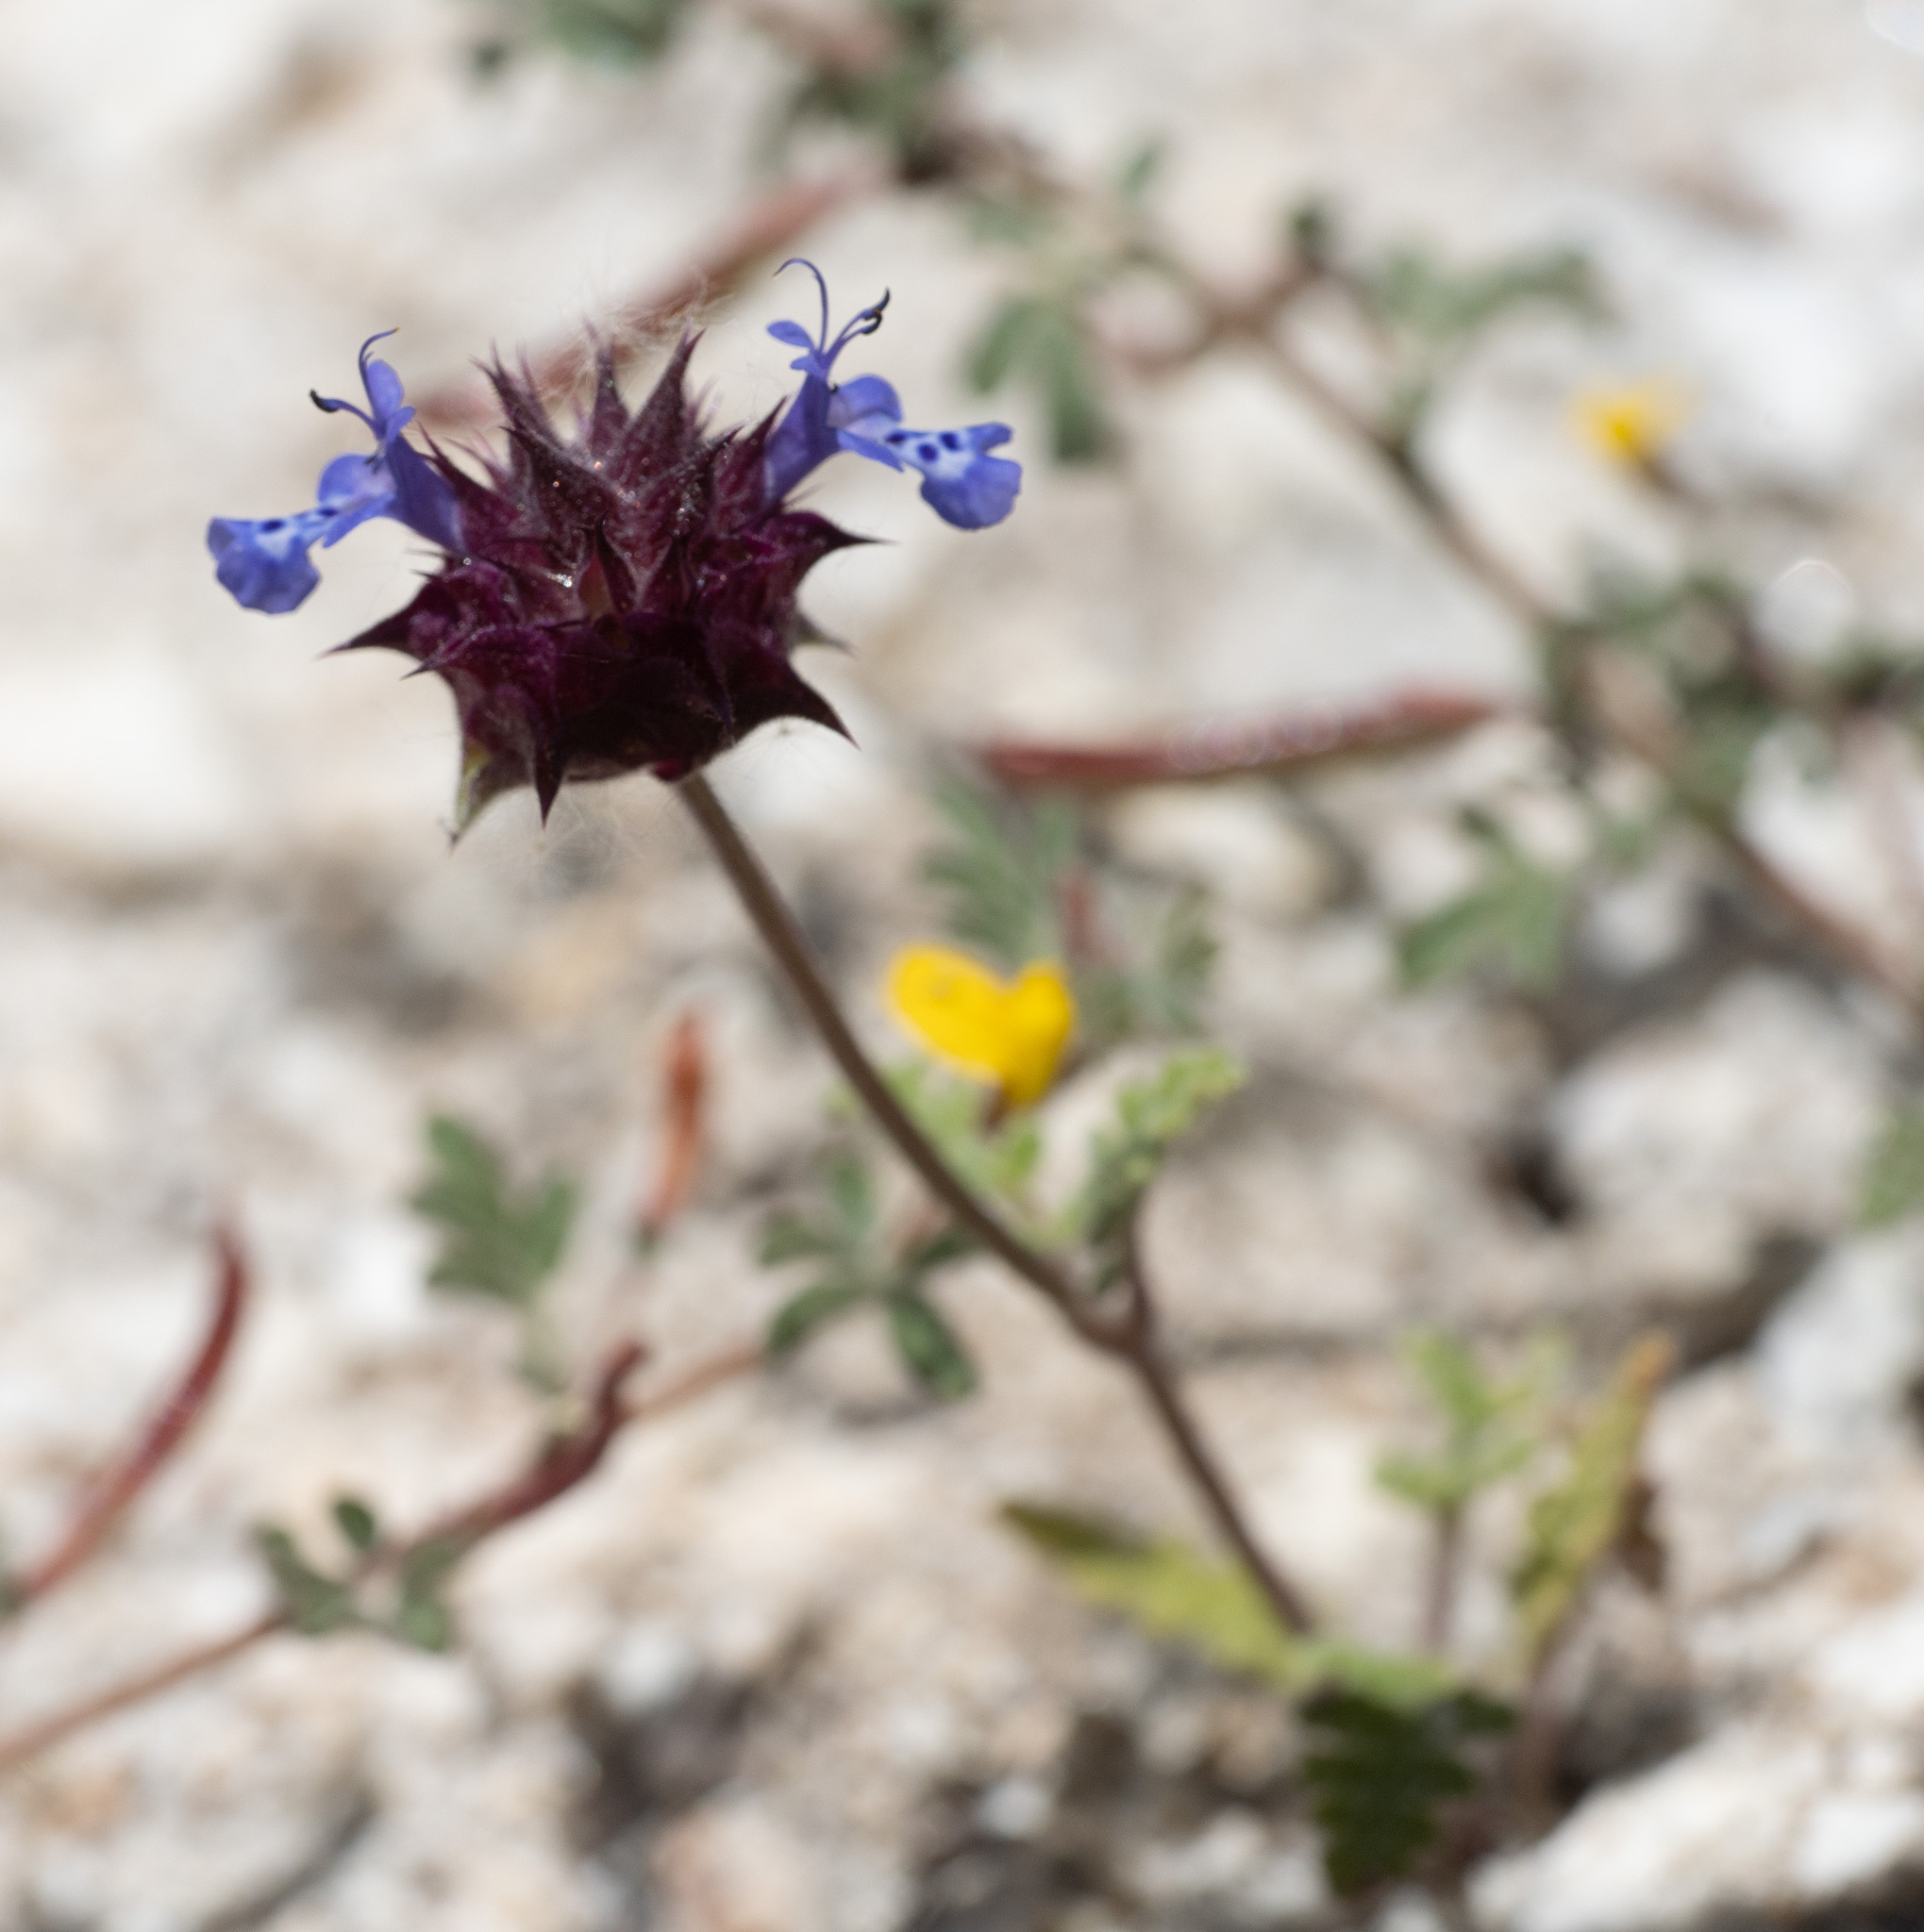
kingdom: Plantae
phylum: Tracheophyta
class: Magnoliopsida
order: Lamiales
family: Lamiaceae
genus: Salvia
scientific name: Salvia columbariae
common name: Chia
